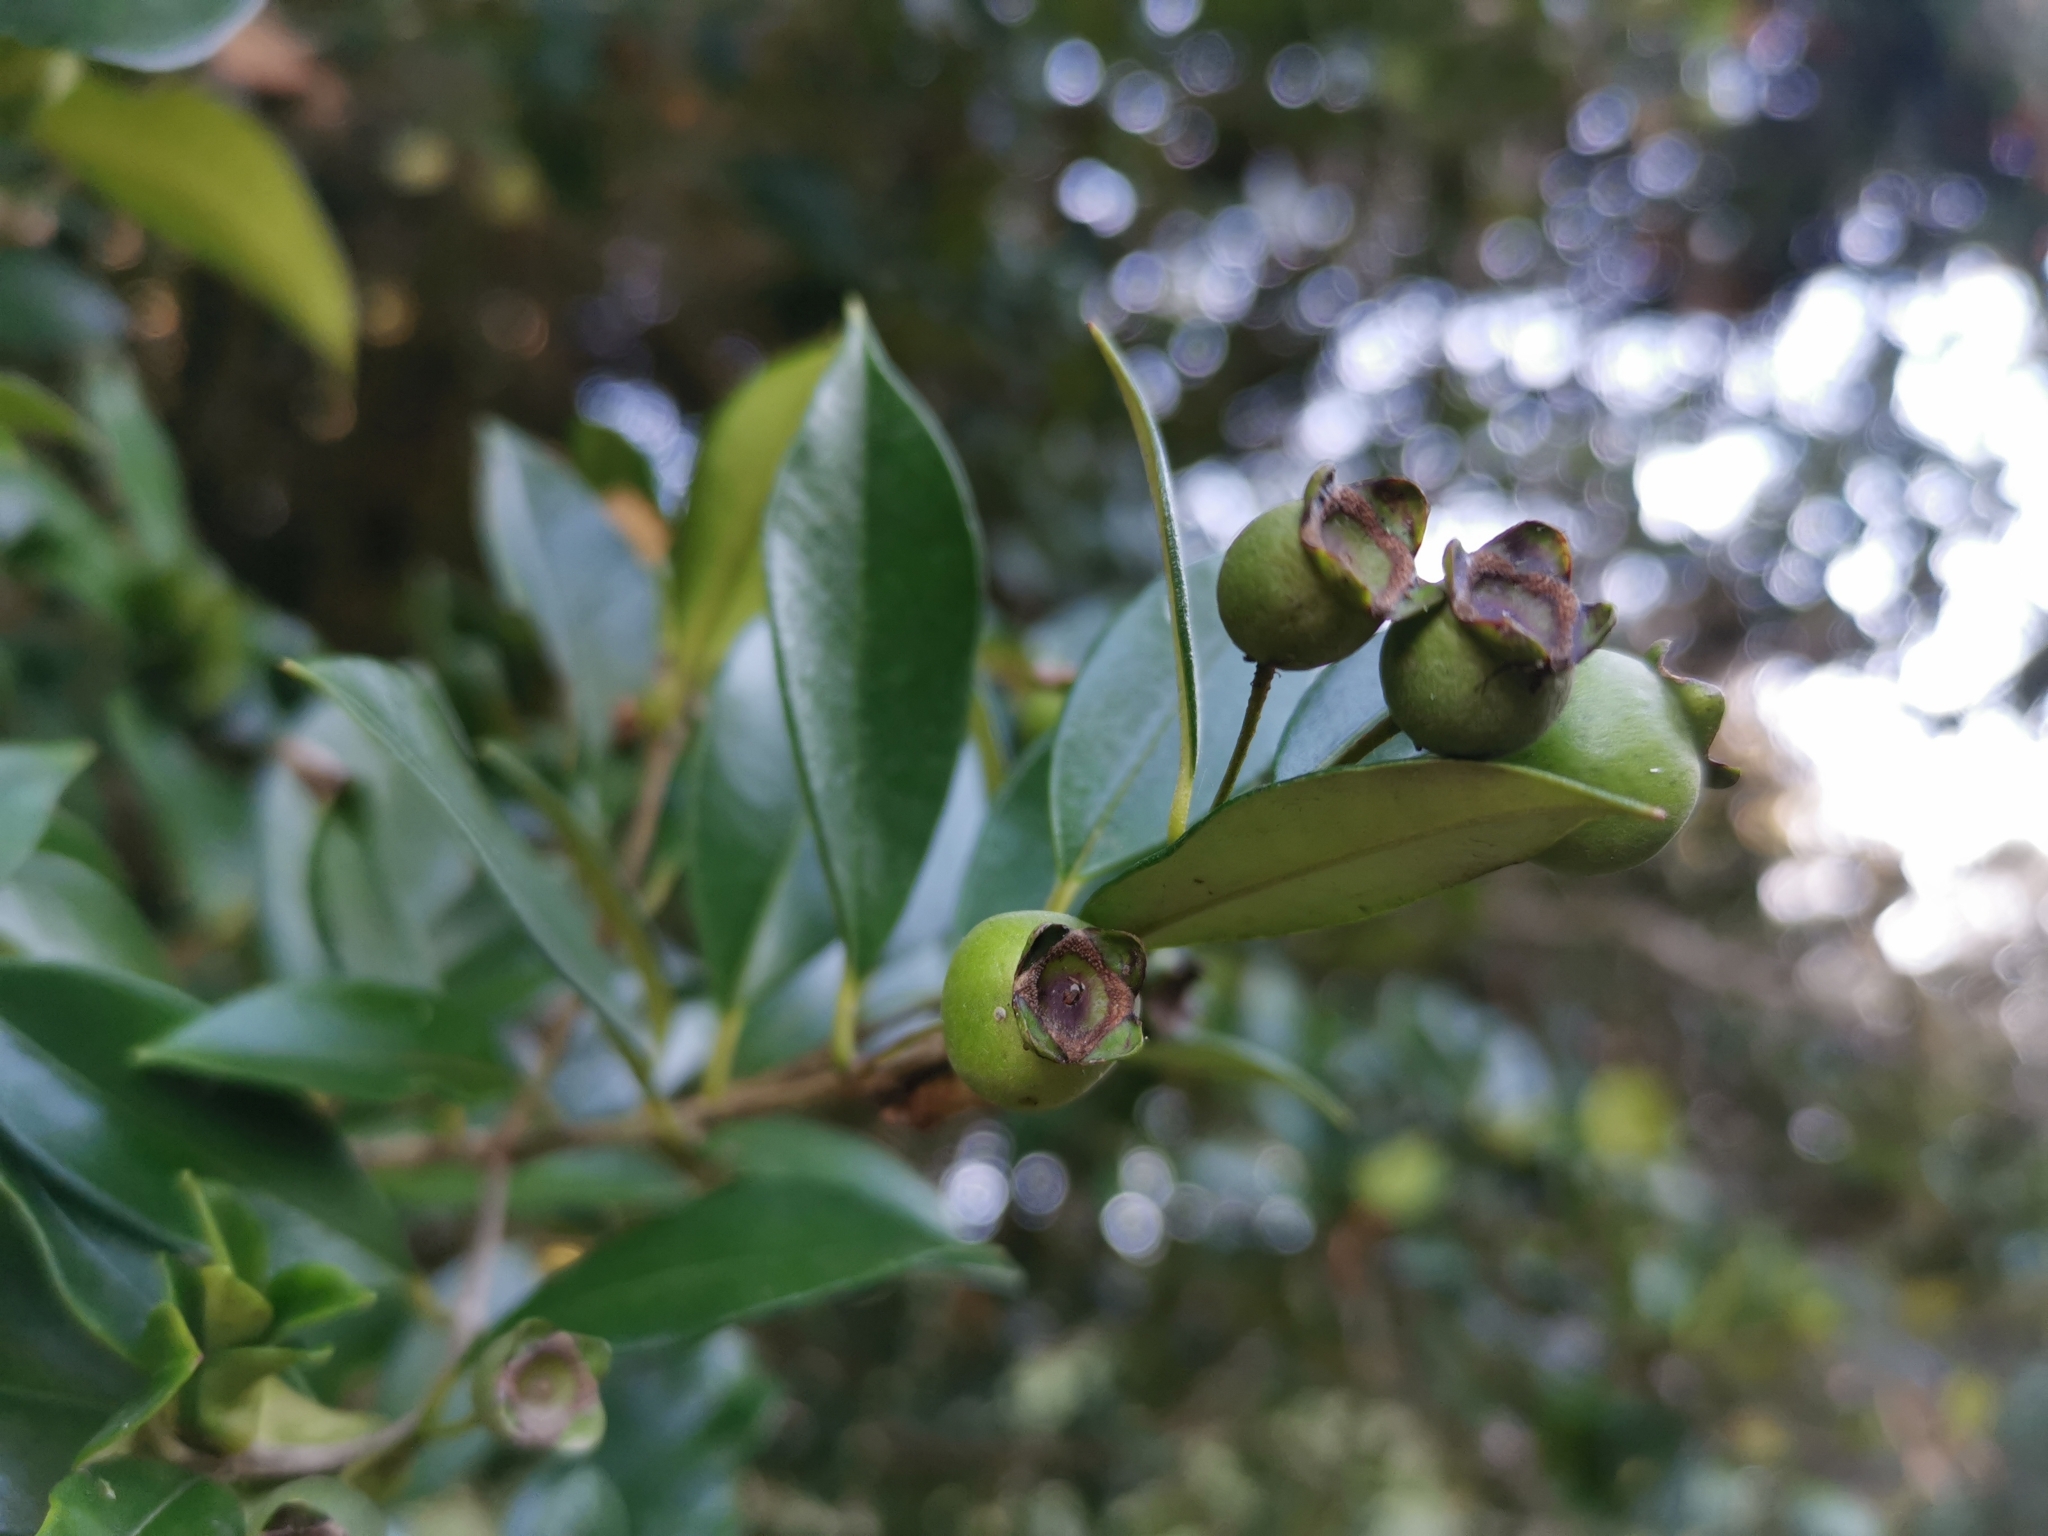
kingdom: Plantae
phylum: Tracheophyta
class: Magnoliopsida
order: Myrtales
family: Myrtaceae
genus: Myrceugenia
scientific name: Myrceugenia planipes
